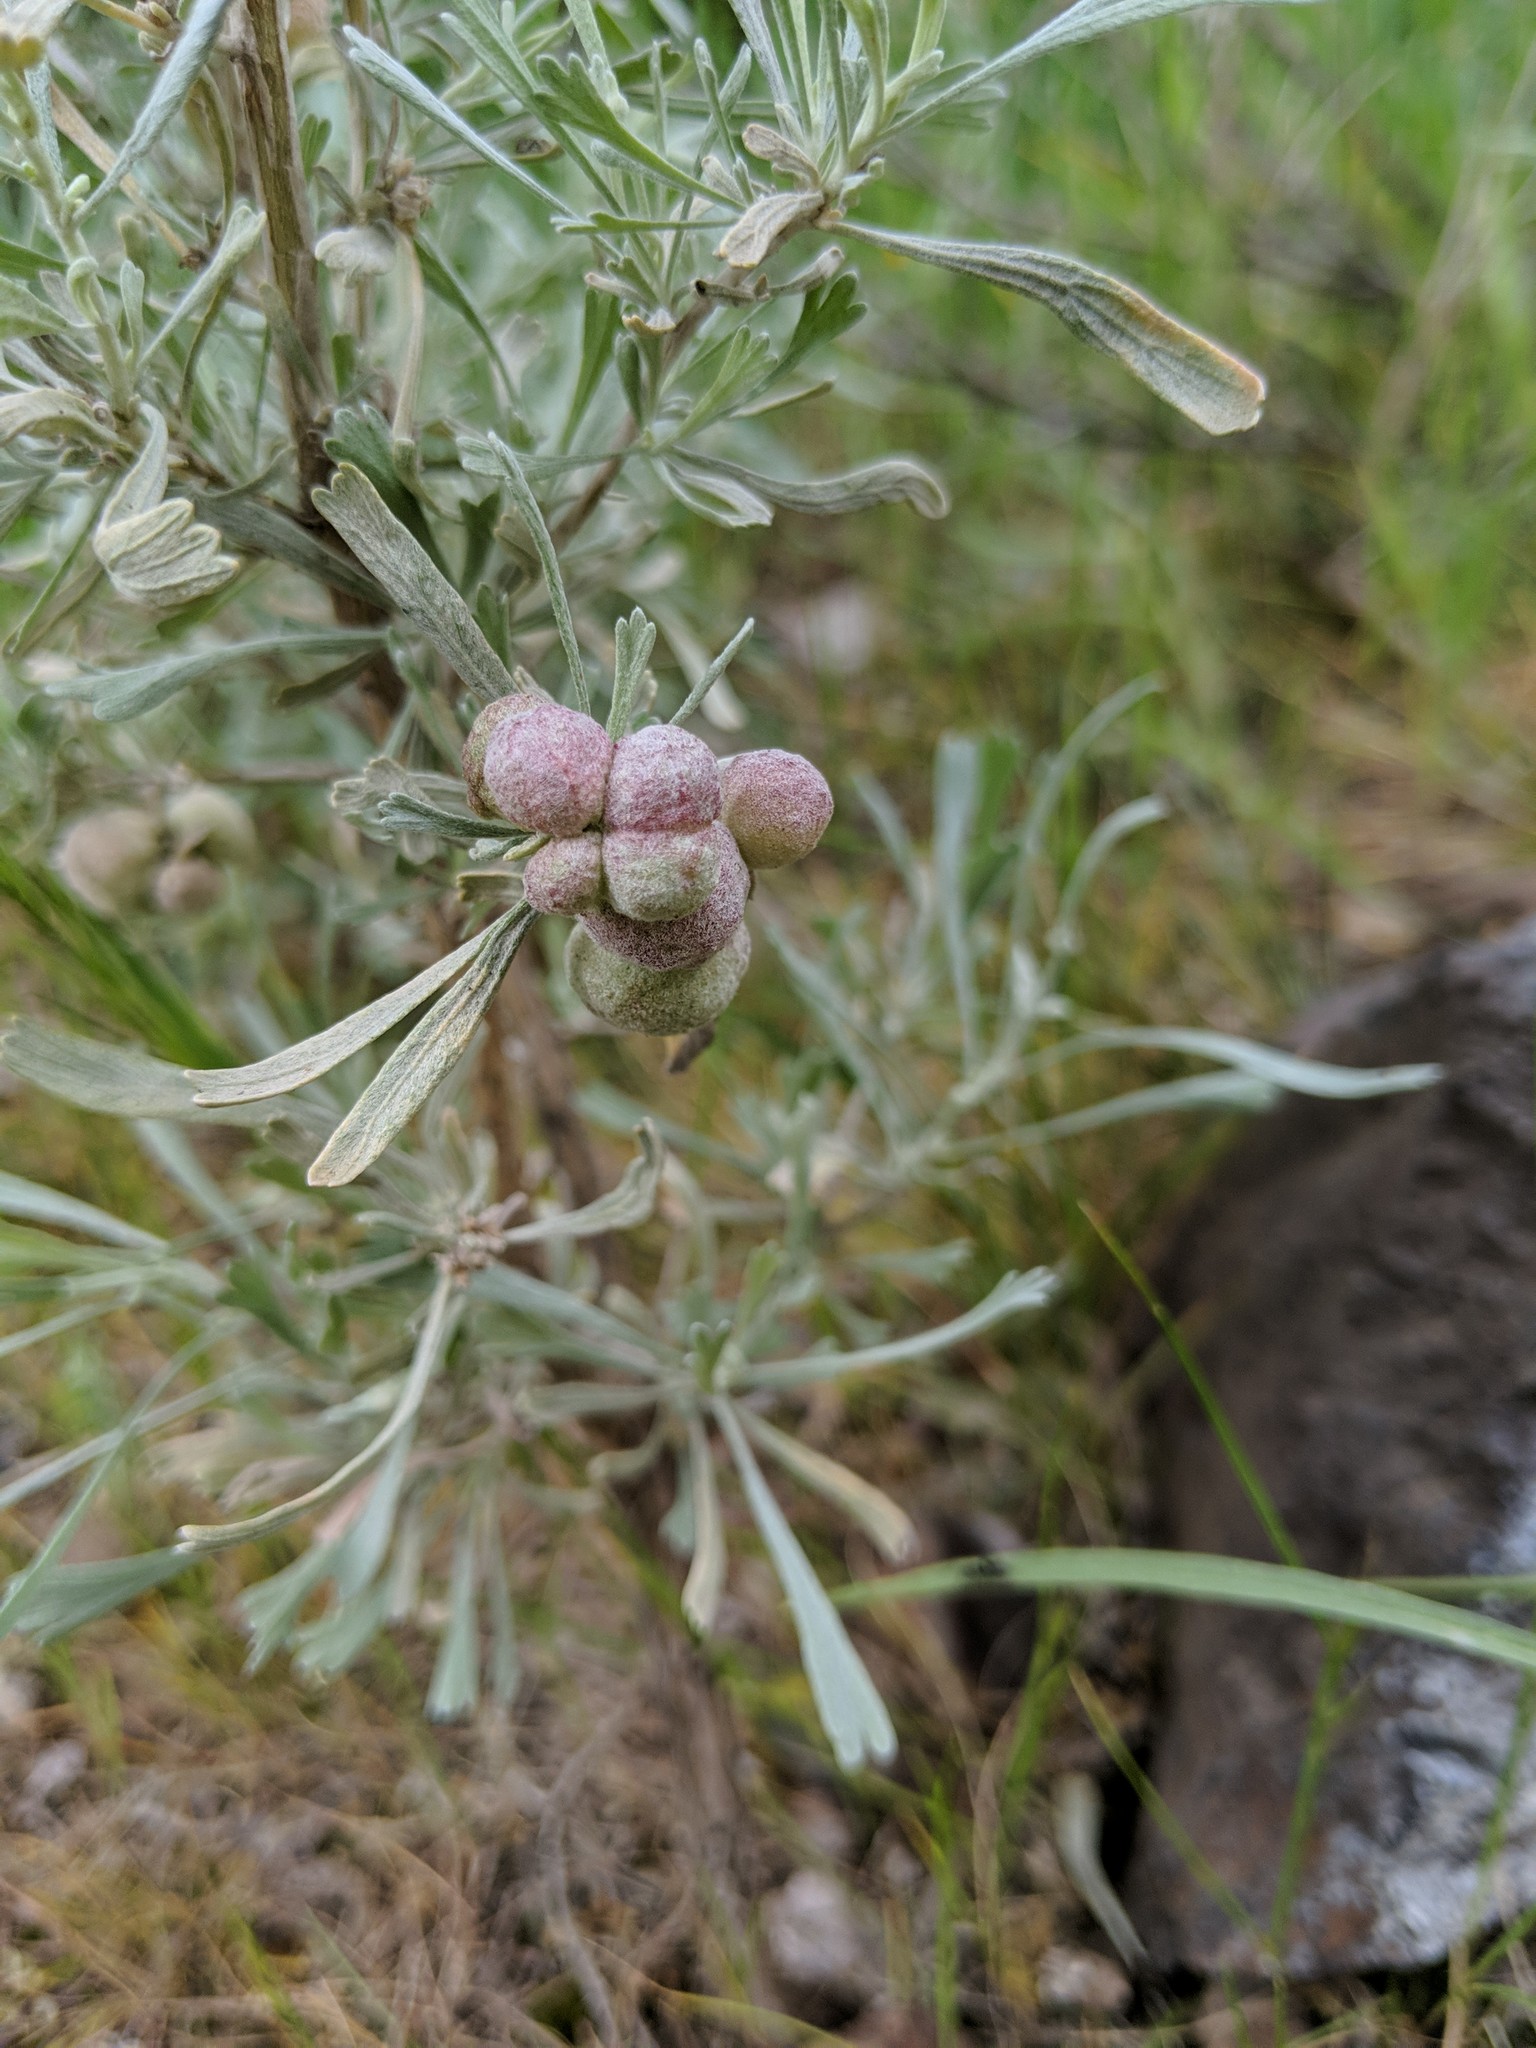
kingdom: Animalia
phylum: Arthropoda
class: Insecta
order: Diptera
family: Cecidomyiidae
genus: Rhopalomyia
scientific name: Rhopalomyia pomum
